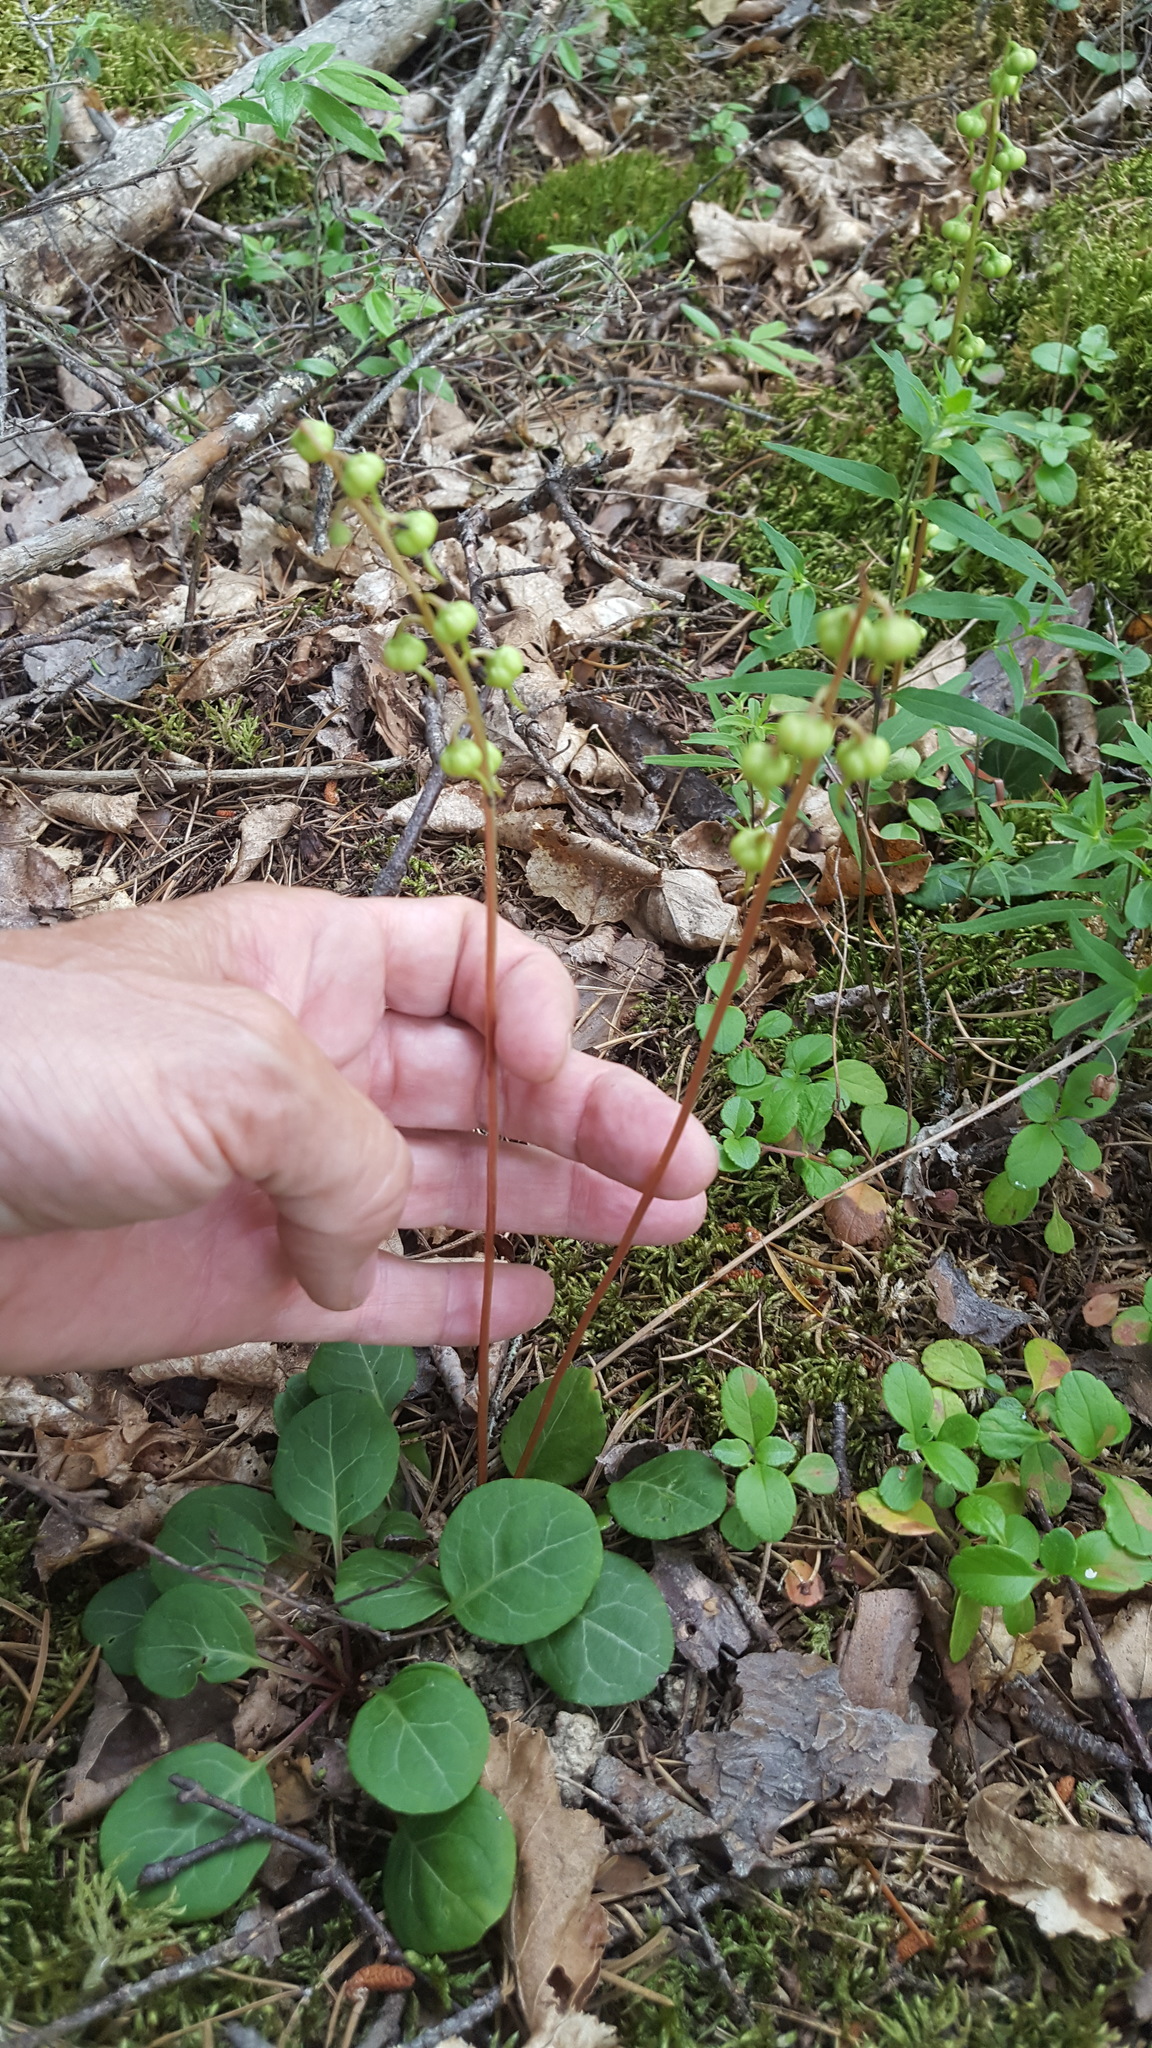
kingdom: Plantae
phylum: Tracheophyta
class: Magnoliopsida
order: Ericales
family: Ericaceae
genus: Pyrola
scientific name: Pyrola chlorantha
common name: Green wintergreen
